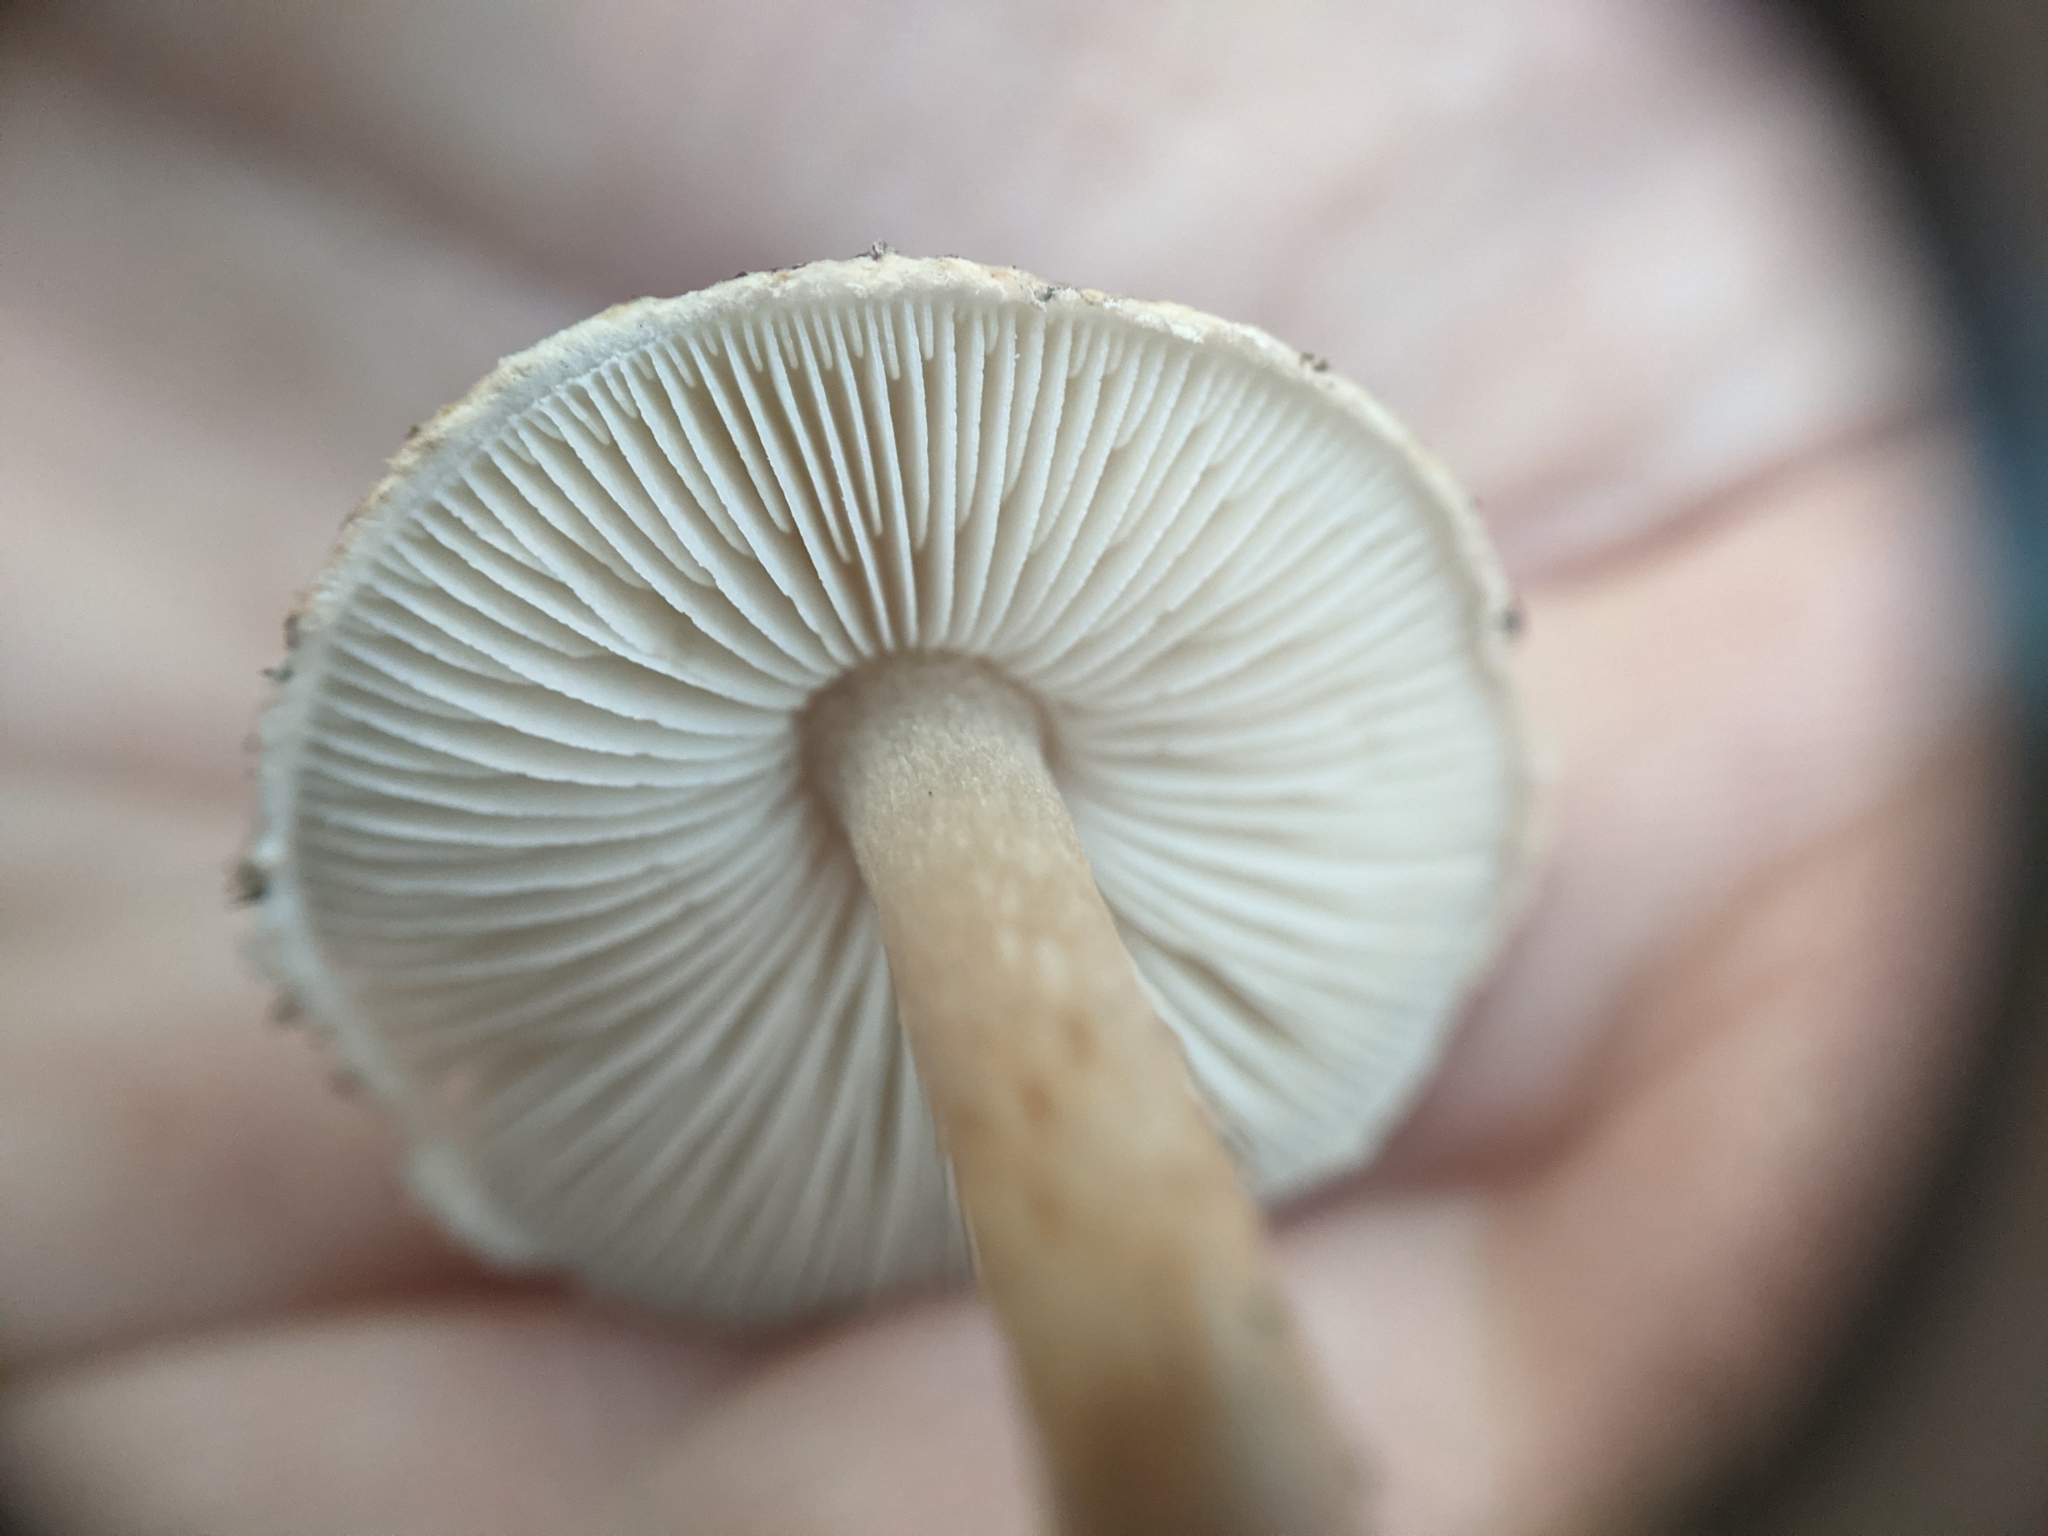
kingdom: Fungi
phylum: Basidiomycota
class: Agaricomycetes
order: Agaricales
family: Agaricaceae
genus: Lepiota
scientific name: Lepiota grangei
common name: Green dapperling
